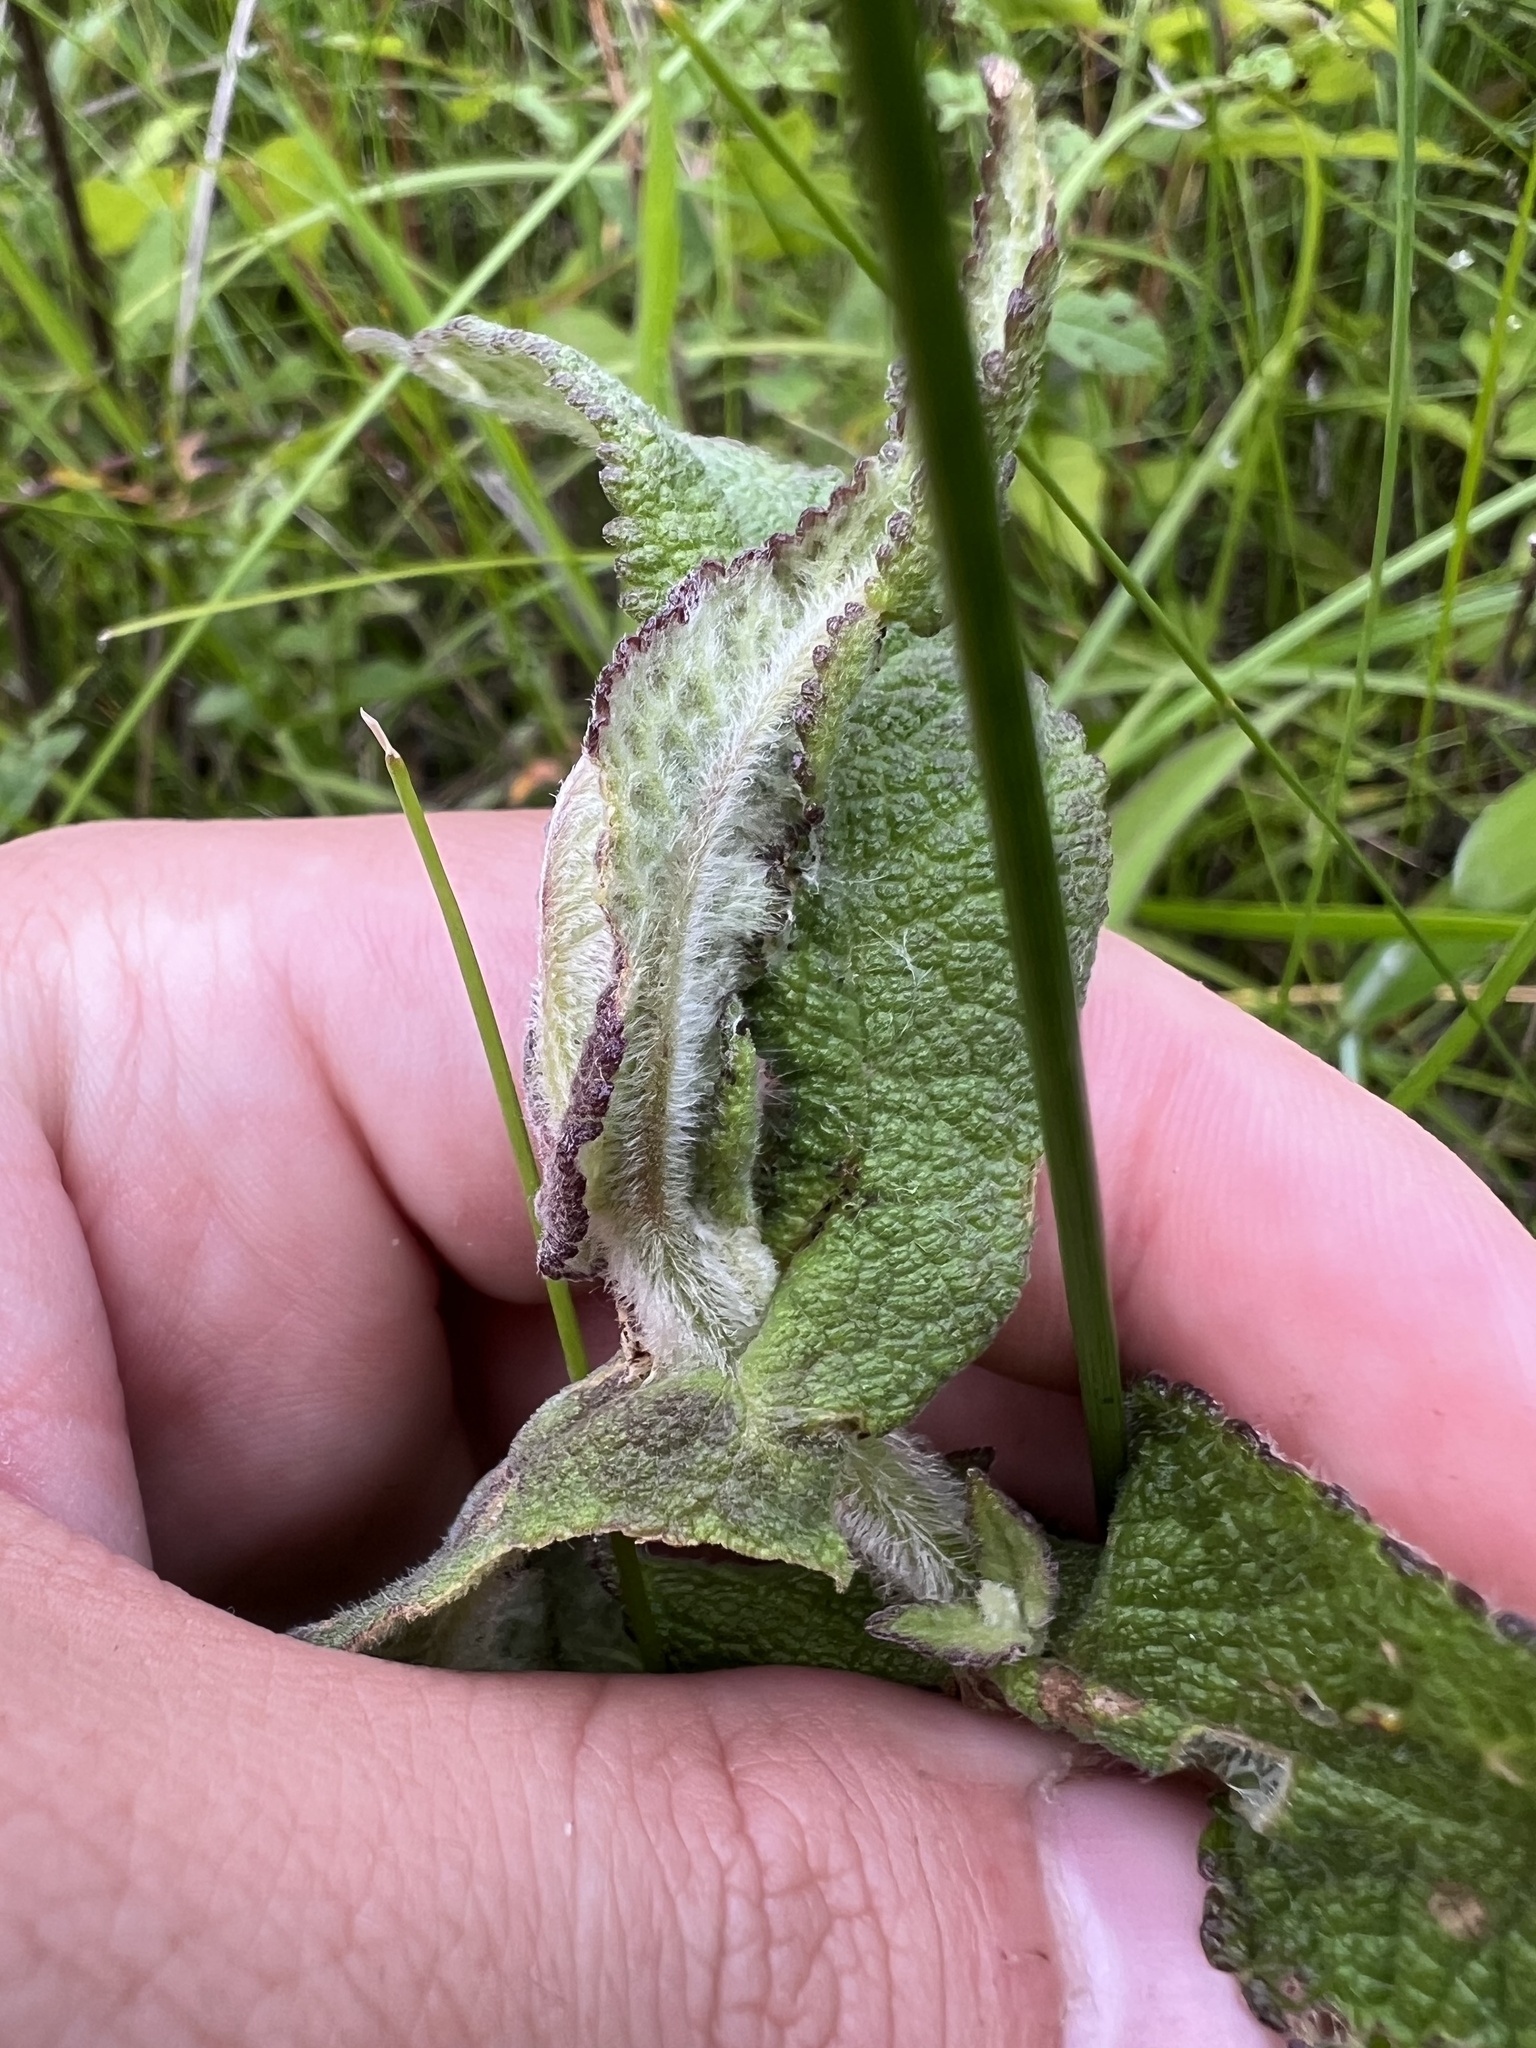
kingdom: Plantae
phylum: Tracheophyta
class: Magnoliopsida
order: Asterales
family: Asteraceae
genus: Eupatorium
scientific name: Eupatorium perfoliatum
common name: Boneset
